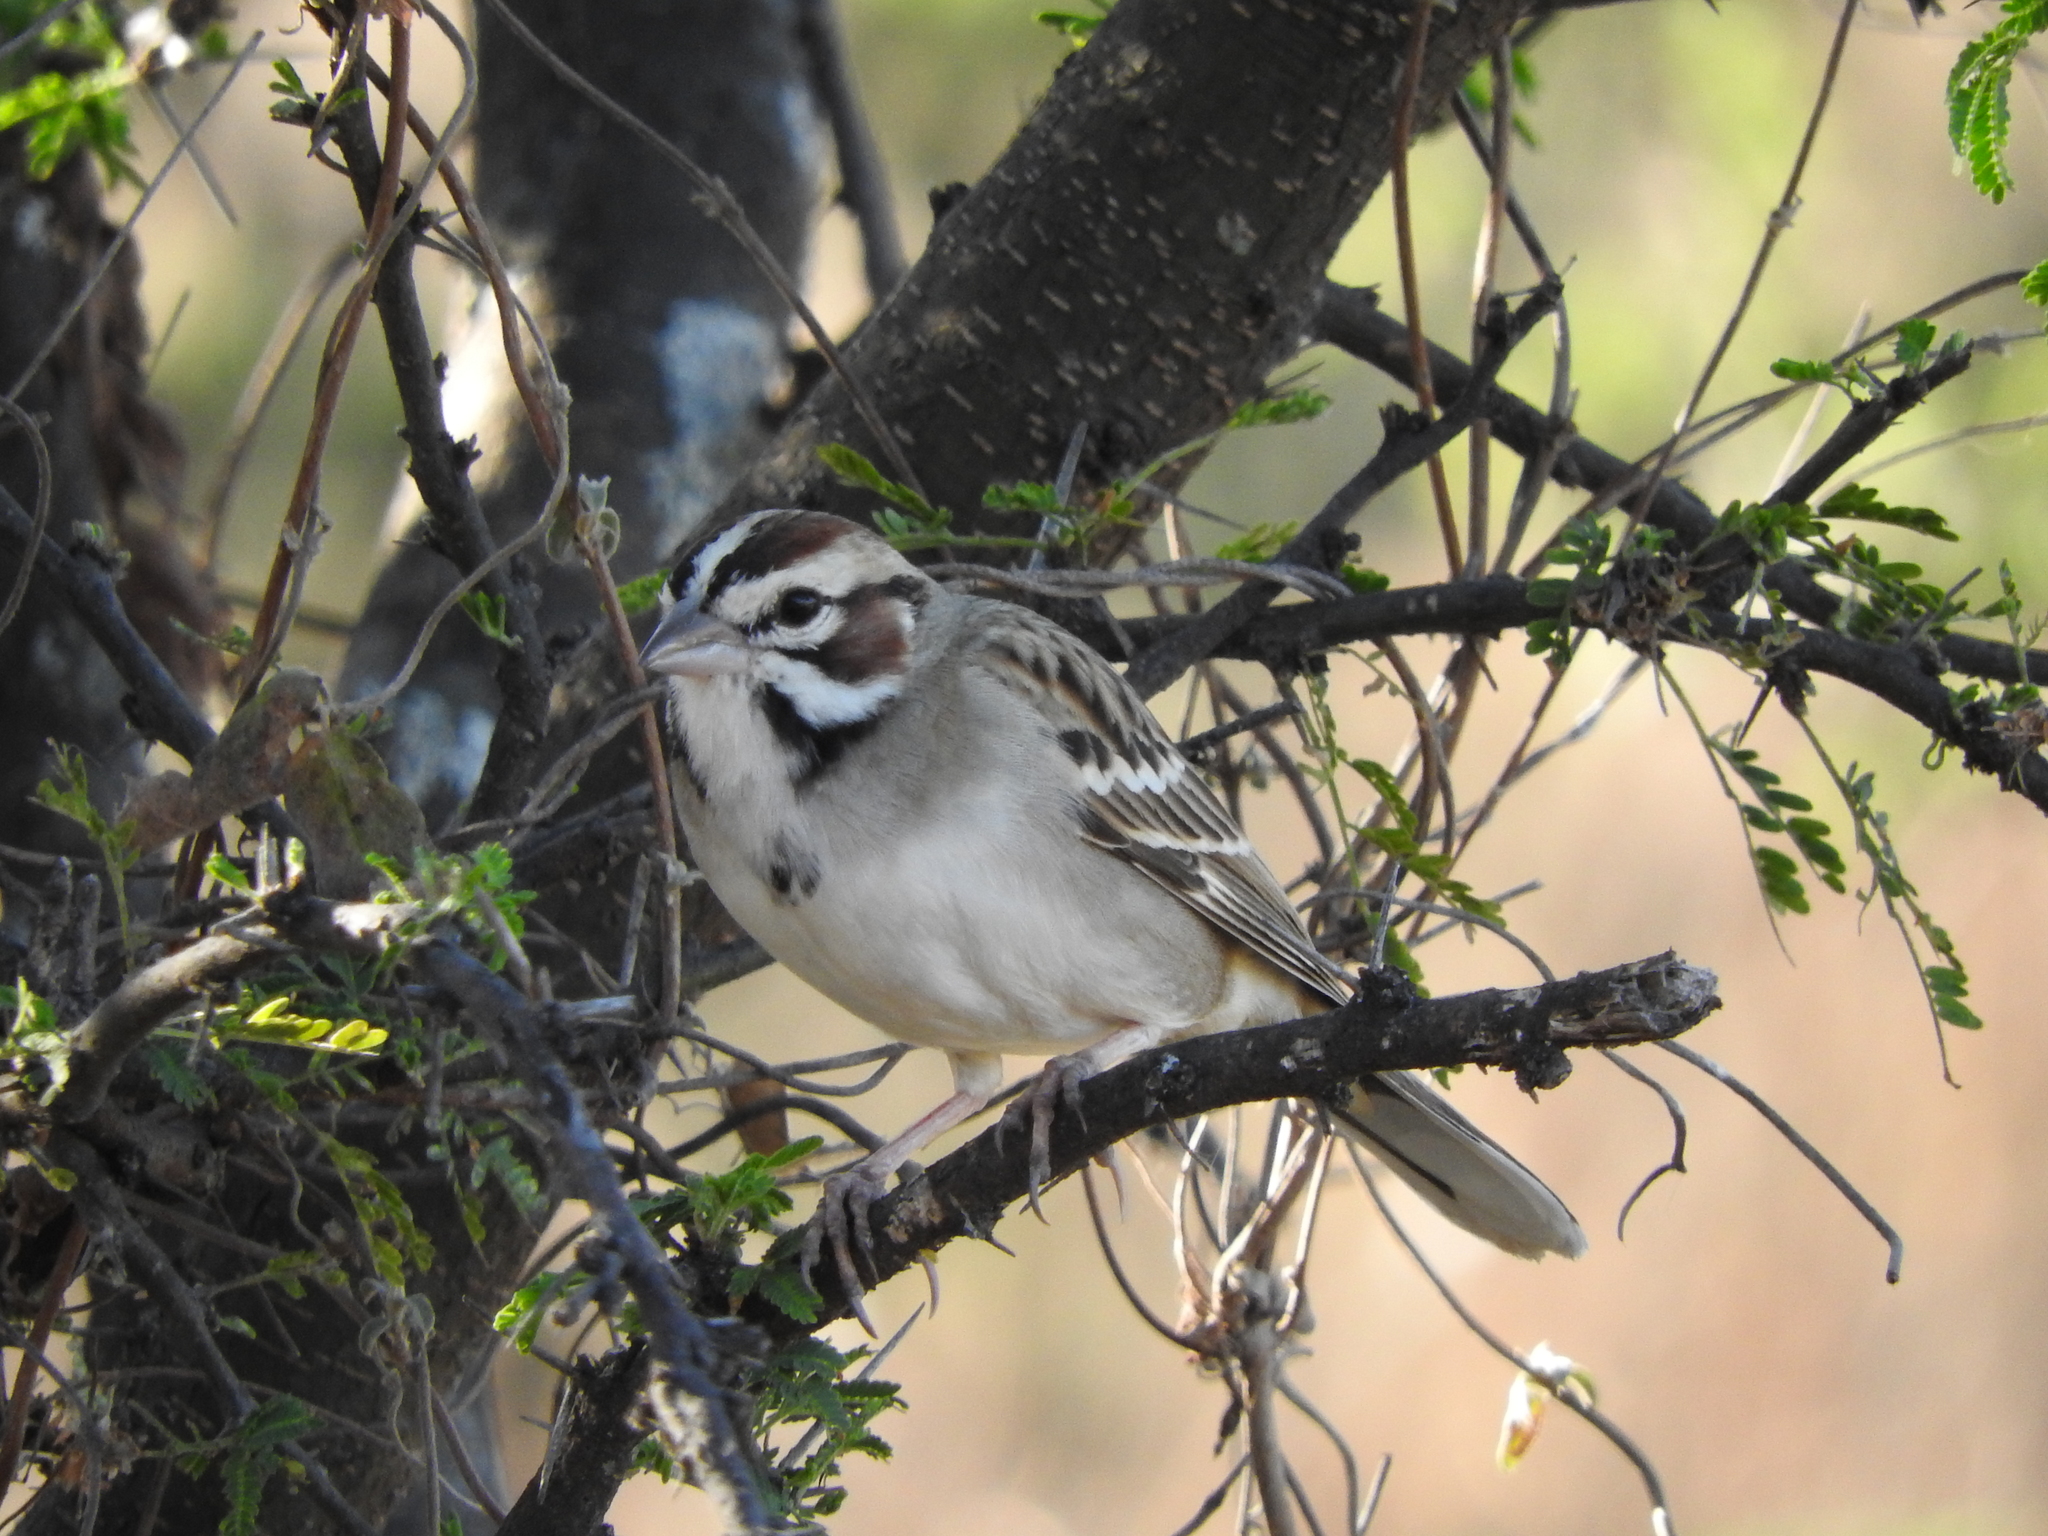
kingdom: Animalia
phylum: Chordata
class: Aves
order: Passeriformes
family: Passerellidae
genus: Chondestes
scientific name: Chondestes grammacus
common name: Lark sparrow
